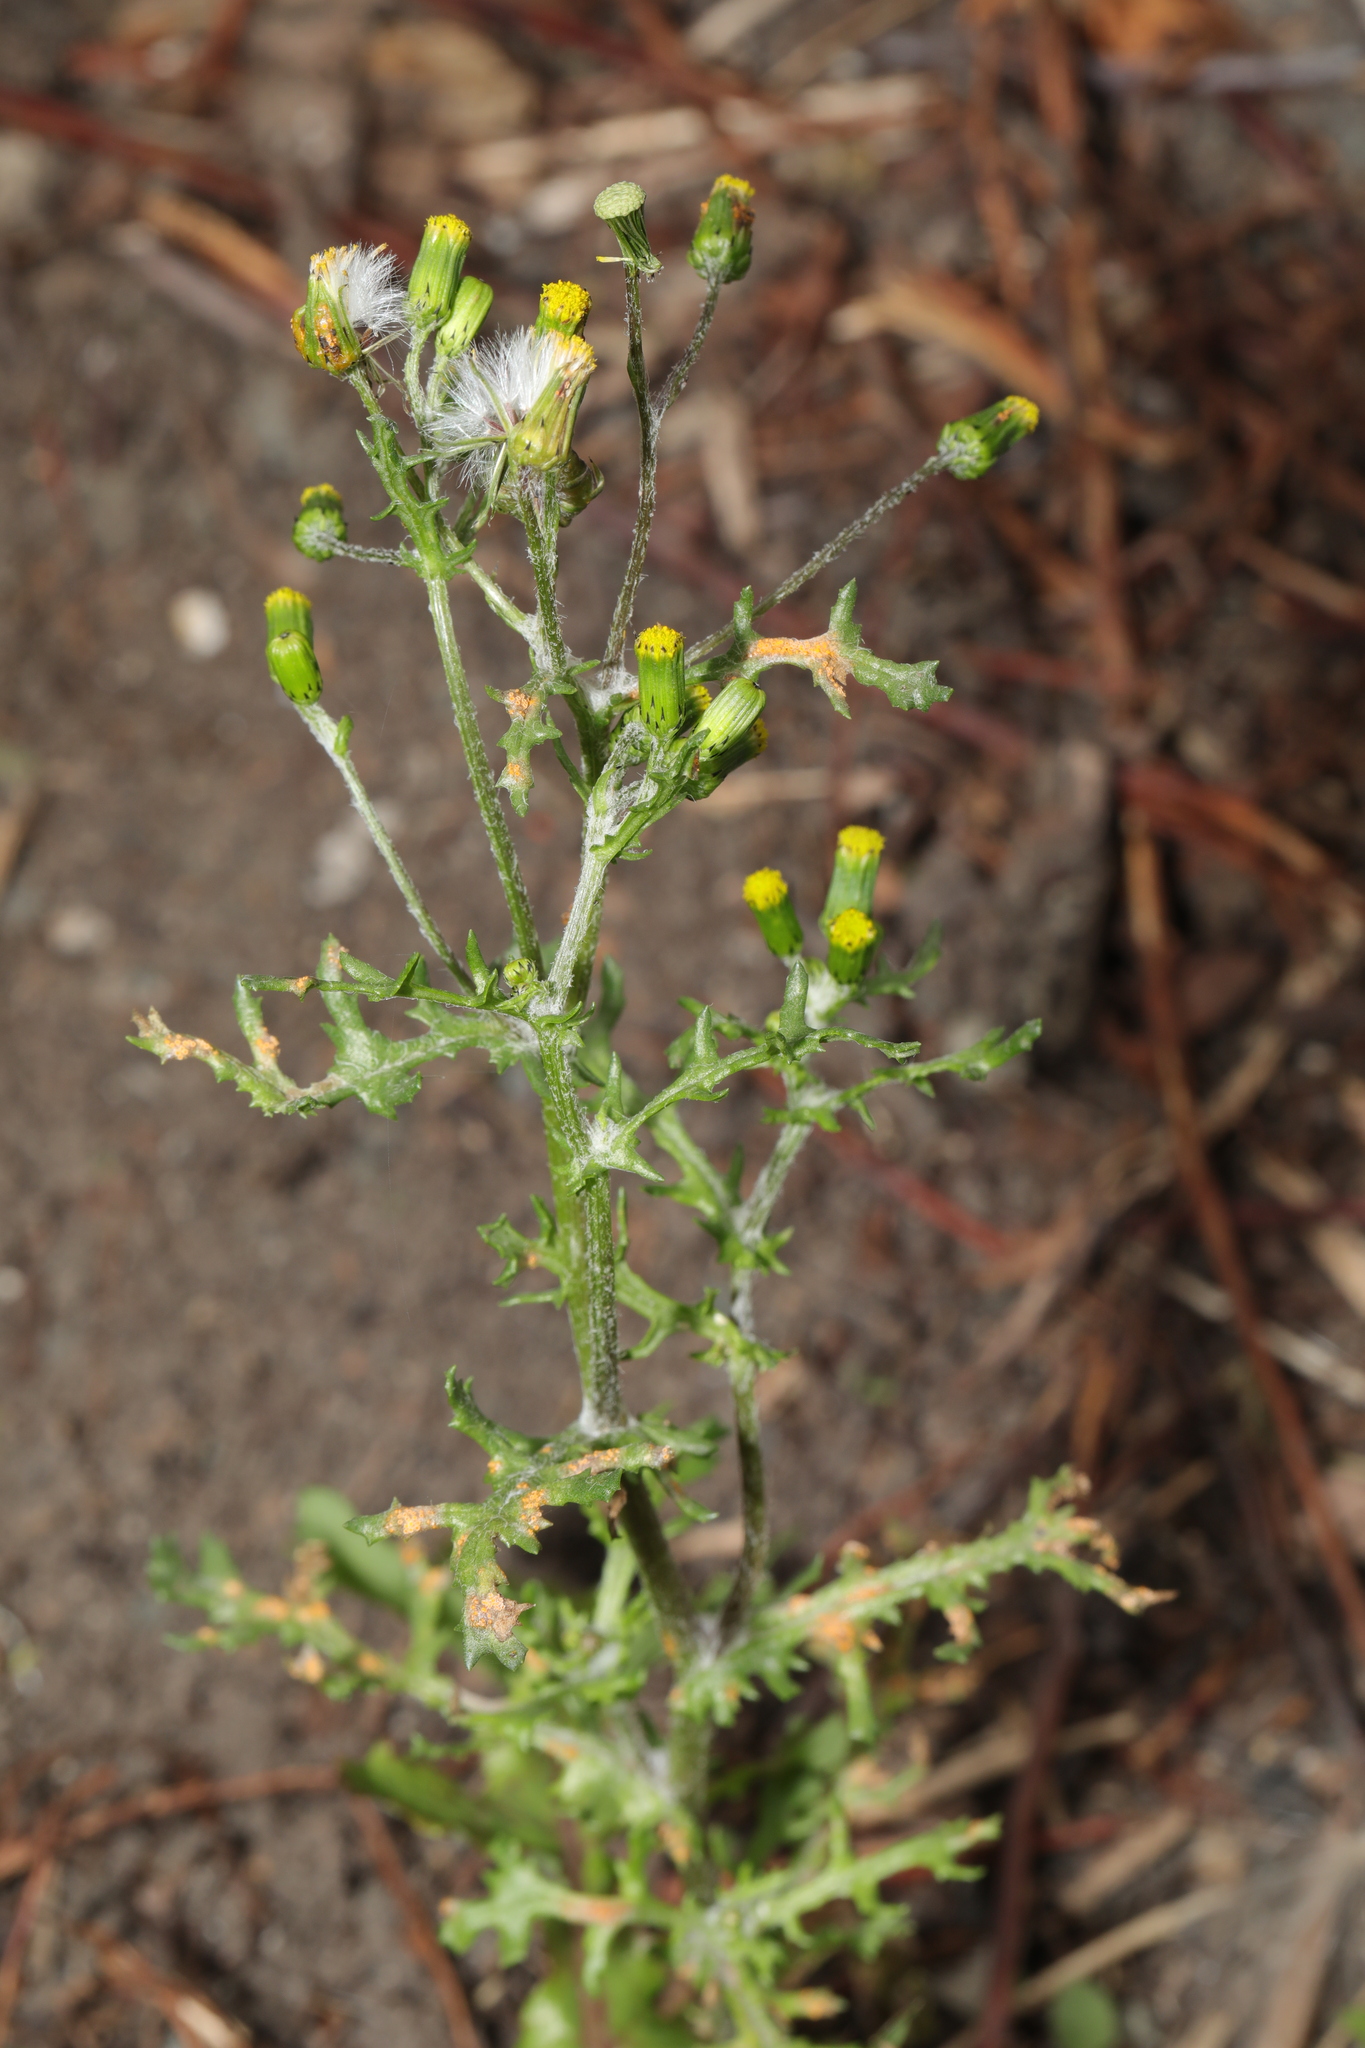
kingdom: Plantae
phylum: Tracheophyta
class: Magnoliopsida
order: Asterales
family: Asteraceae
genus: Senecio
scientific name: Senecio vulgaris
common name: Old-man-in-the-spring
